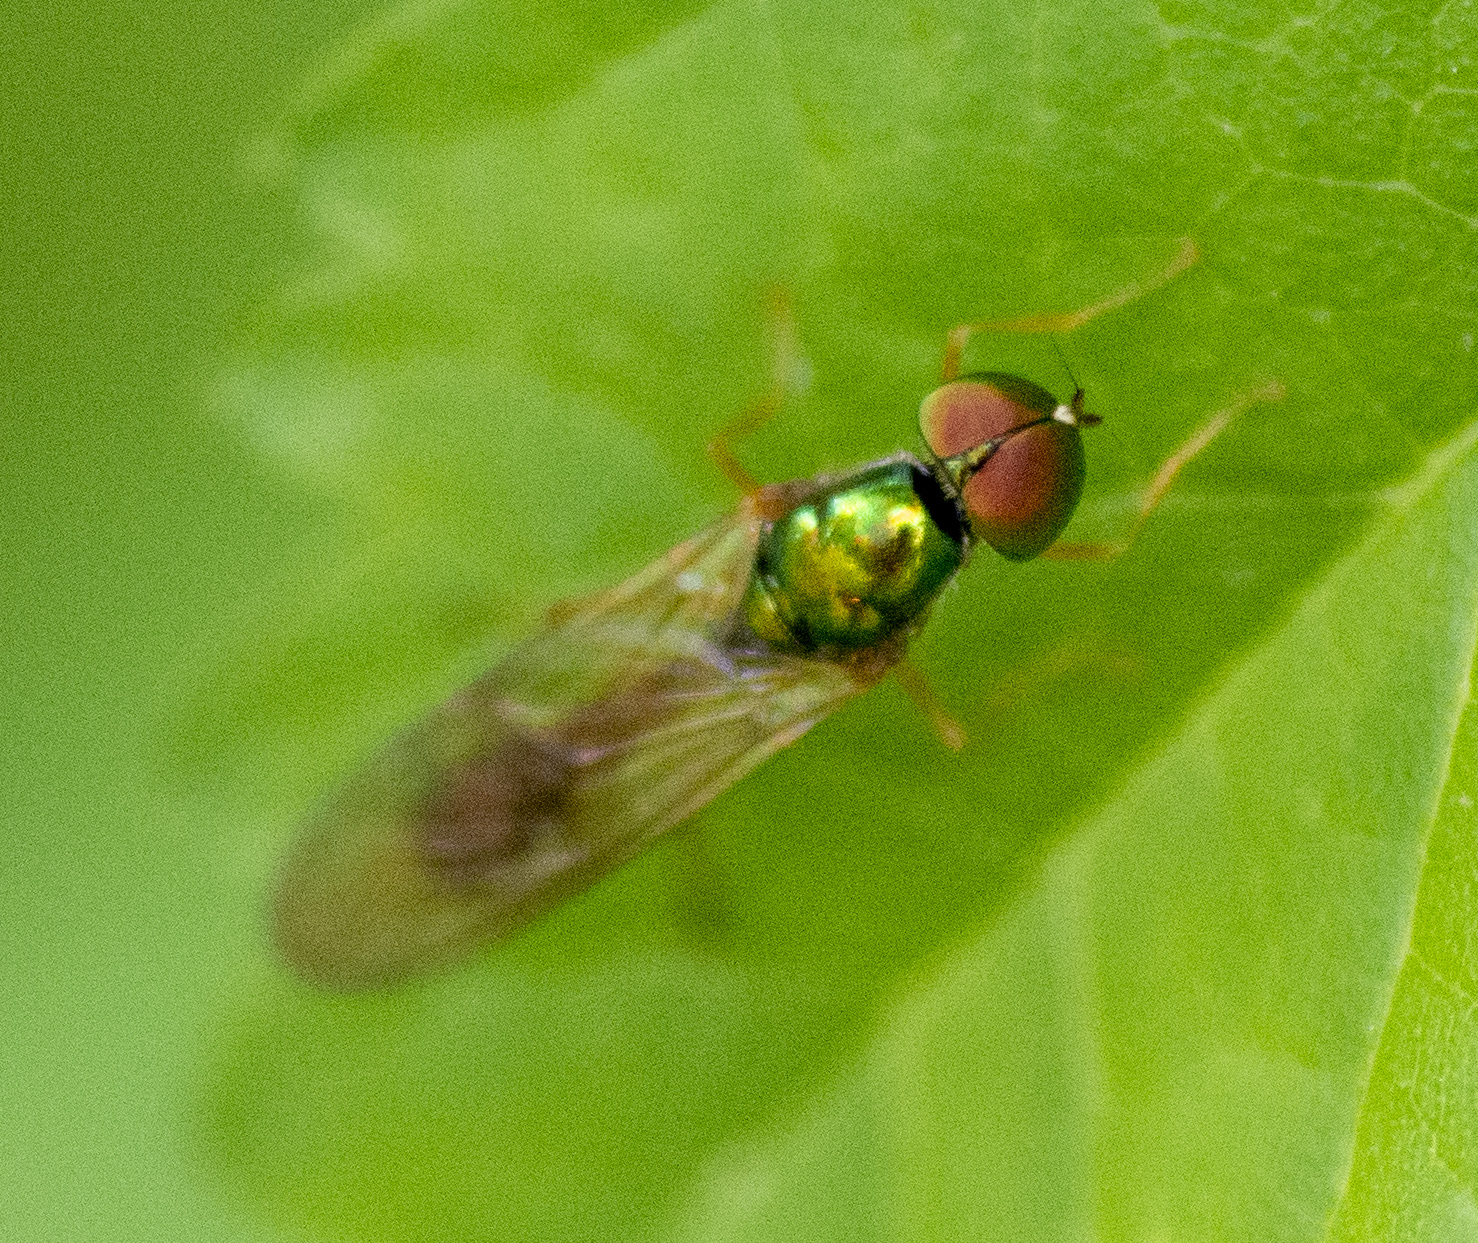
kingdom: Animalia
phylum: Arthropoda
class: Insecta
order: Diptera
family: Stratiomyidae
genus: Sargus
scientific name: Sargus fasciatus
